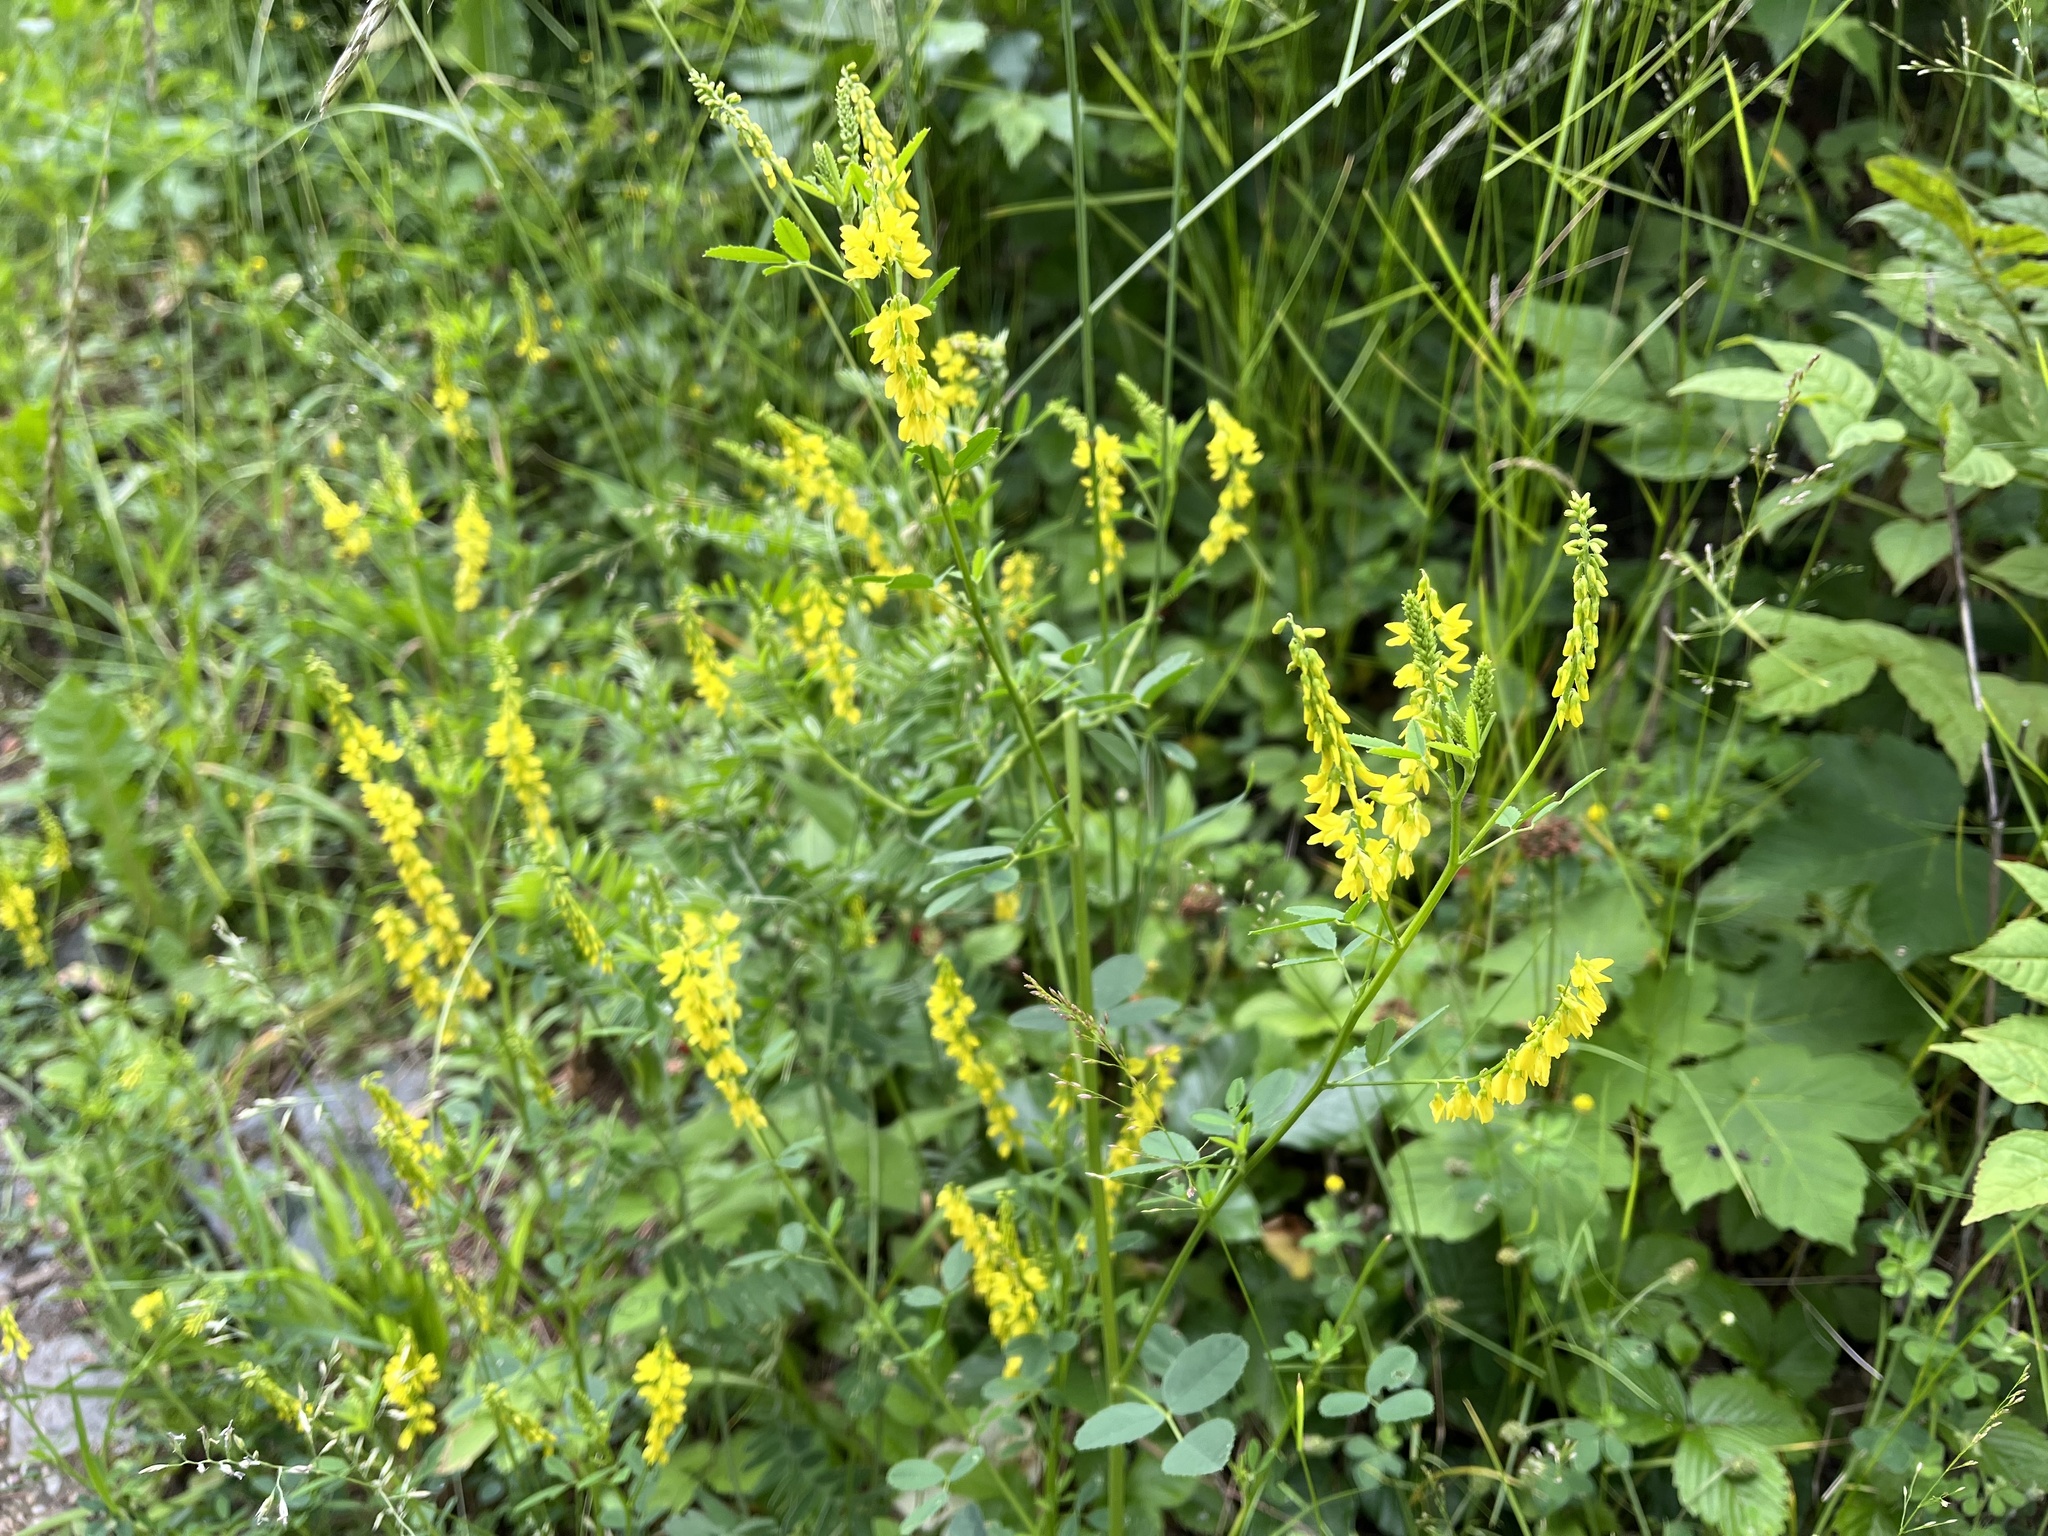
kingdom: Plantae
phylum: Tracheophyta
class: Magnoliopsida
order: Fabales
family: Fabaceae
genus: Melilotus
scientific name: Melilotus officinalis
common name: Sweetclover
